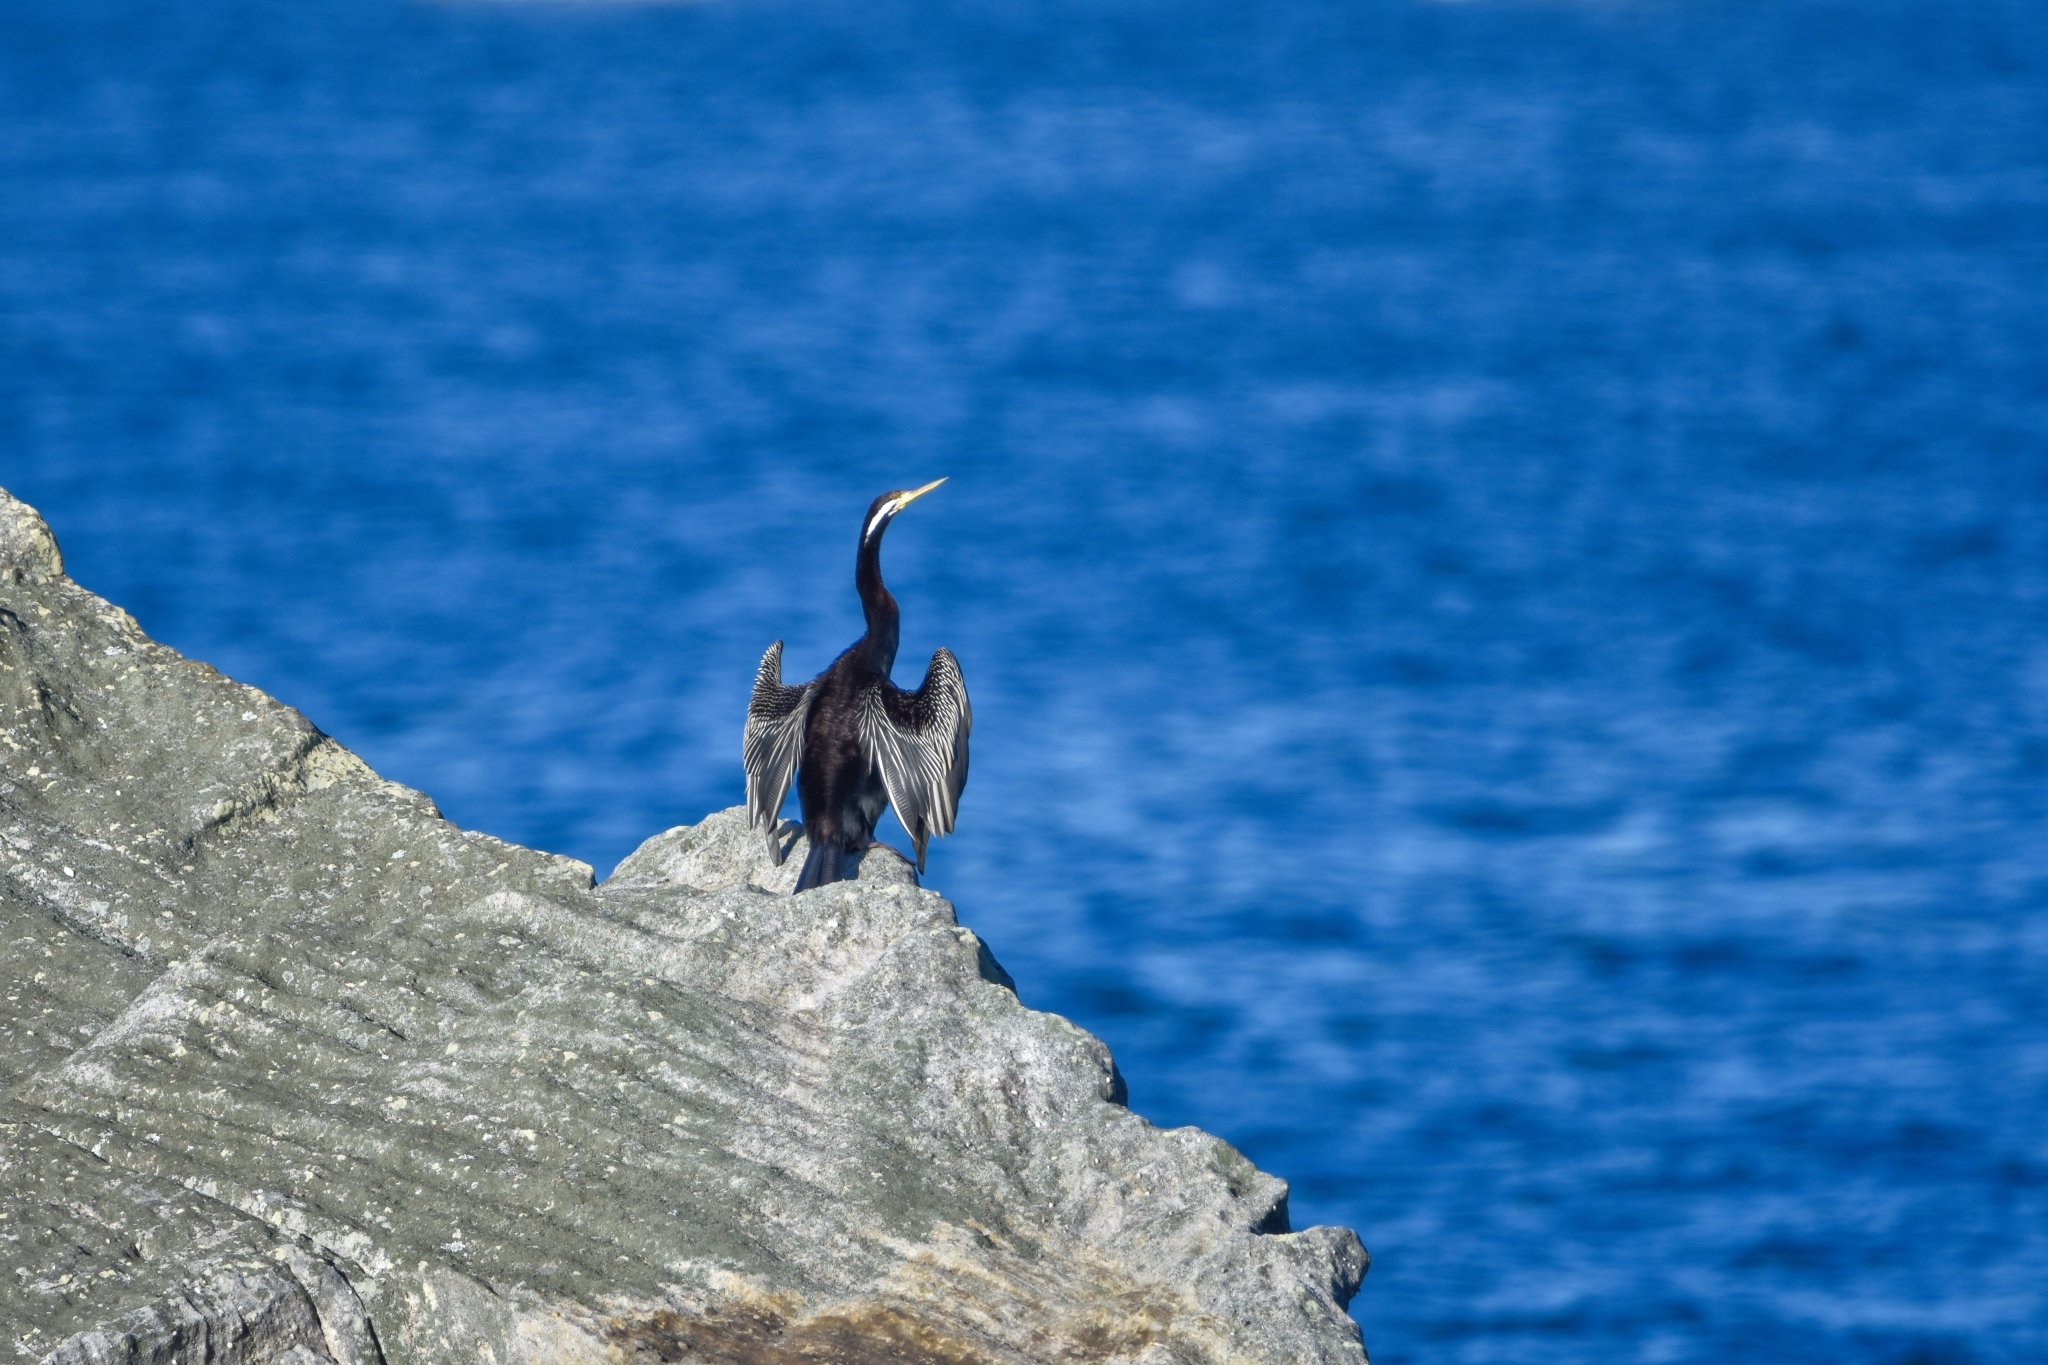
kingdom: Animalia
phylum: Chordata
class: Aves
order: Suliformes
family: Anhingidae
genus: Anhinga
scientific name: Anhinga novaehollandiae
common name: Australasian darter
